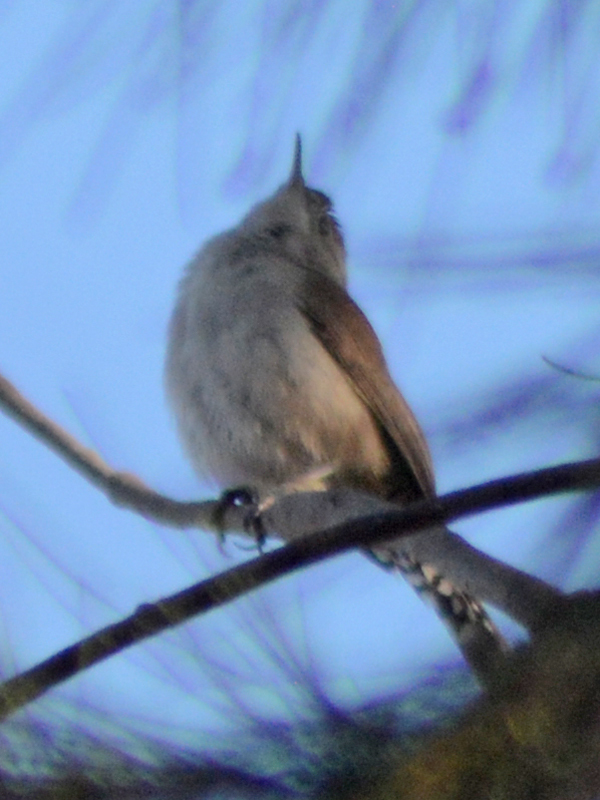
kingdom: Animalia
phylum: Chordata
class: Aves
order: Passeriformes
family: Troglodytidae
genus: Thryomanes
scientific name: Thryomanes bewickii
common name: Bewick's wren
